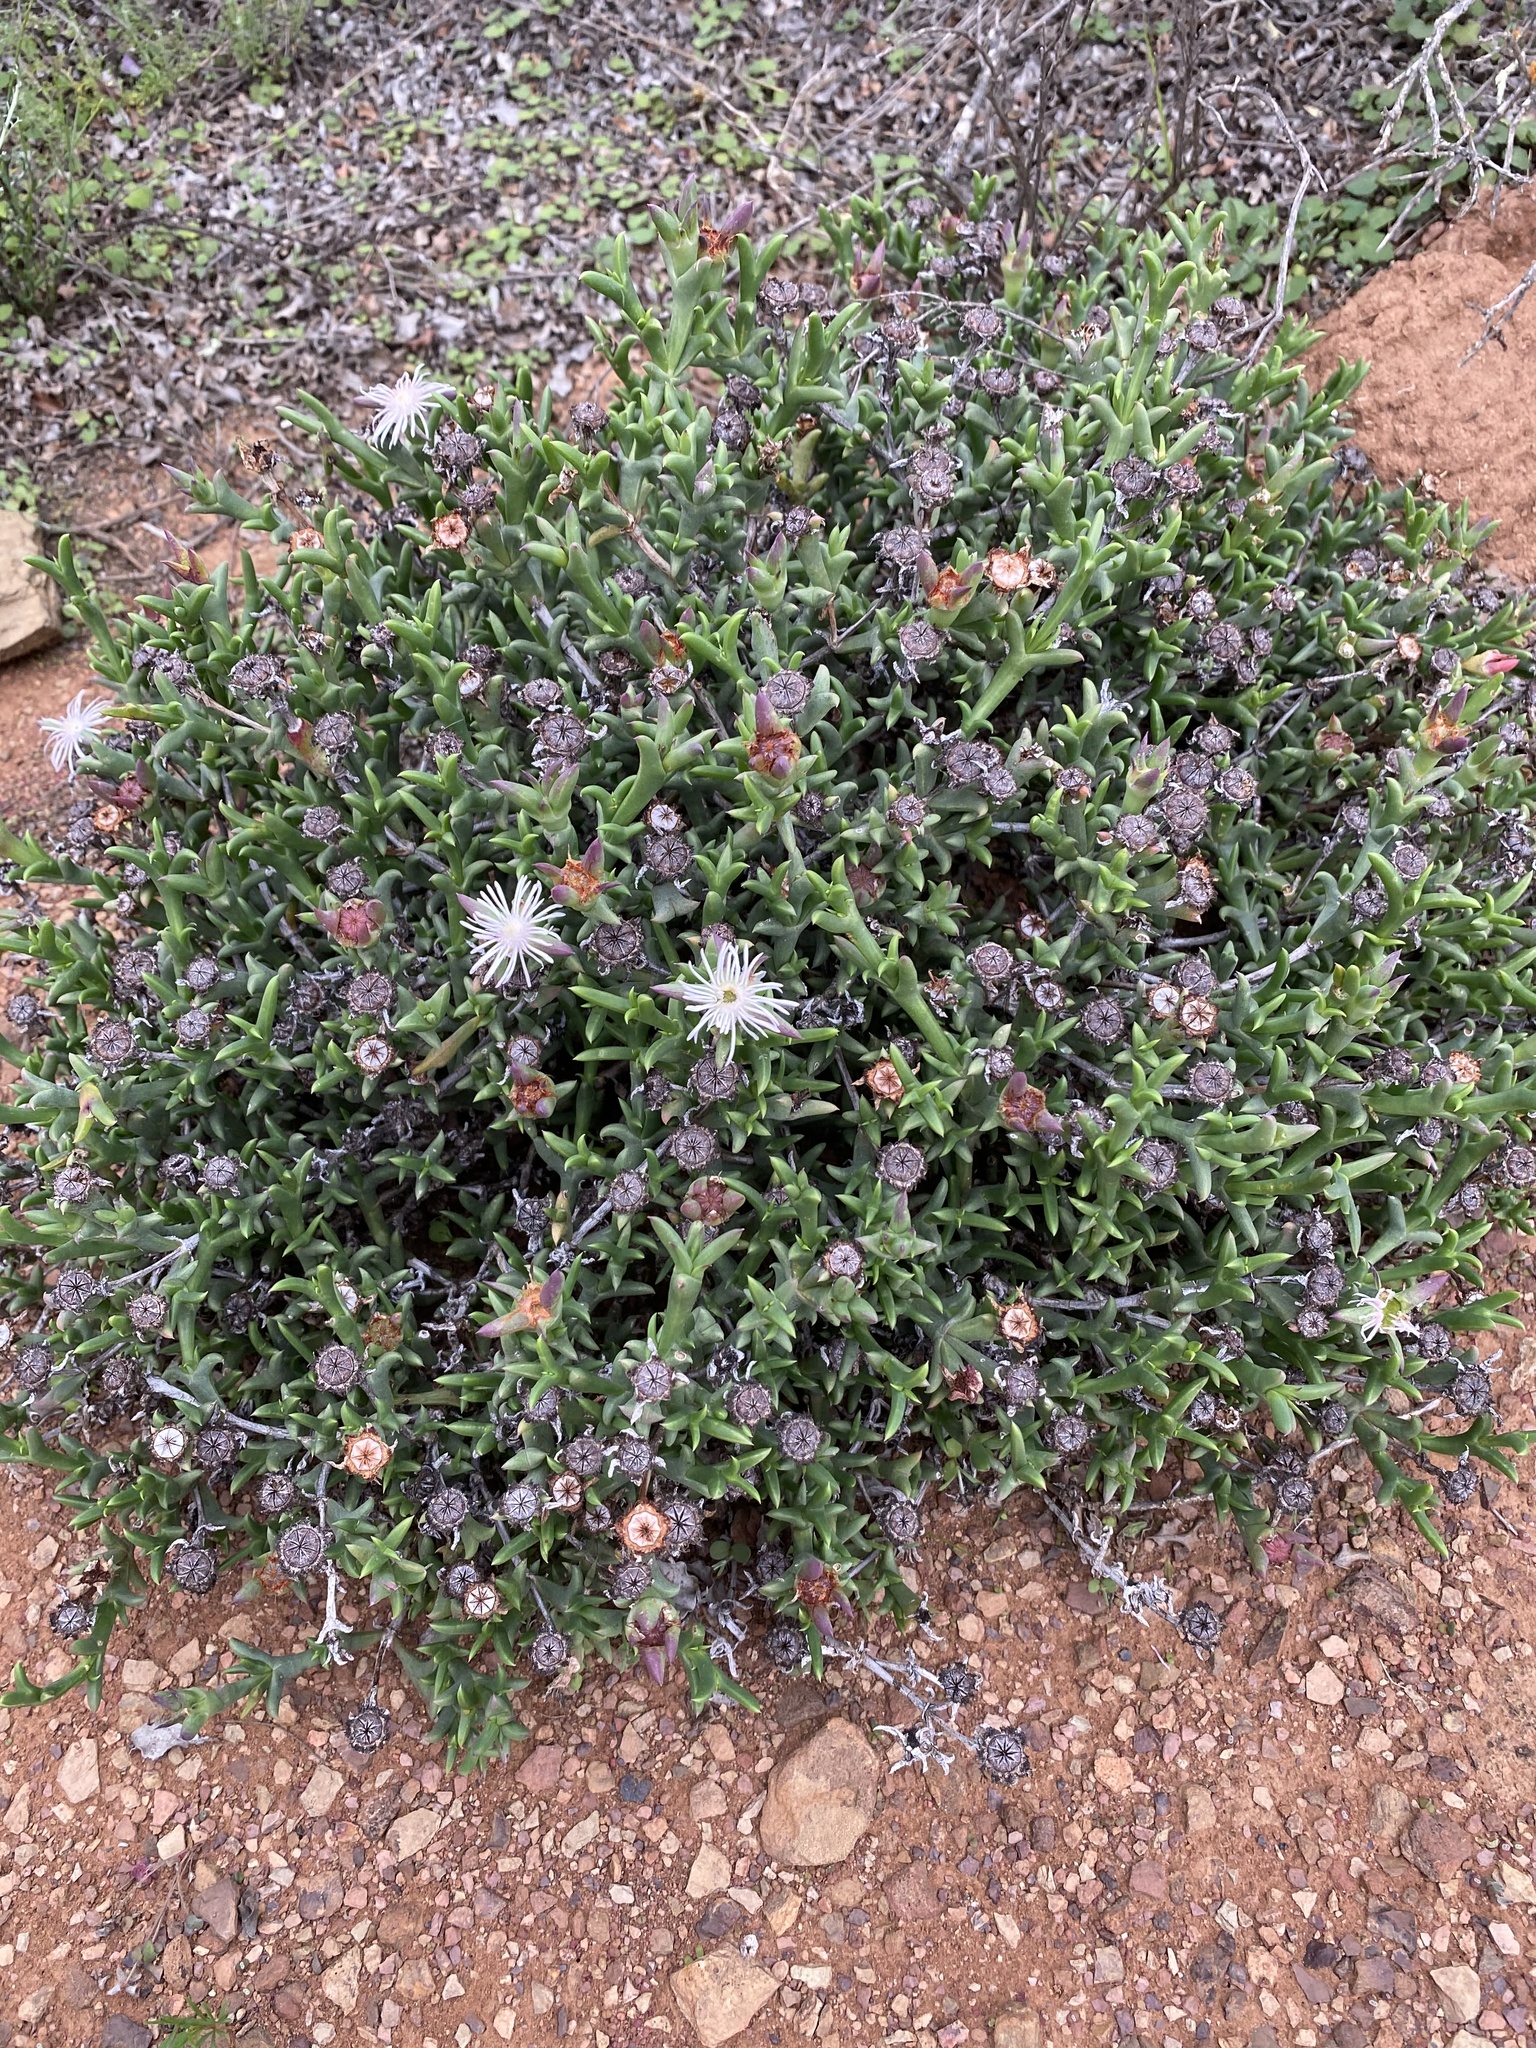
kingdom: Plantae
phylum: Tracheophyta
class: Magnoliopsida
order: Caryophyllales
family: Aizoaceae
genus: Smicrostigma
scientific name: Smicrostigma viride
